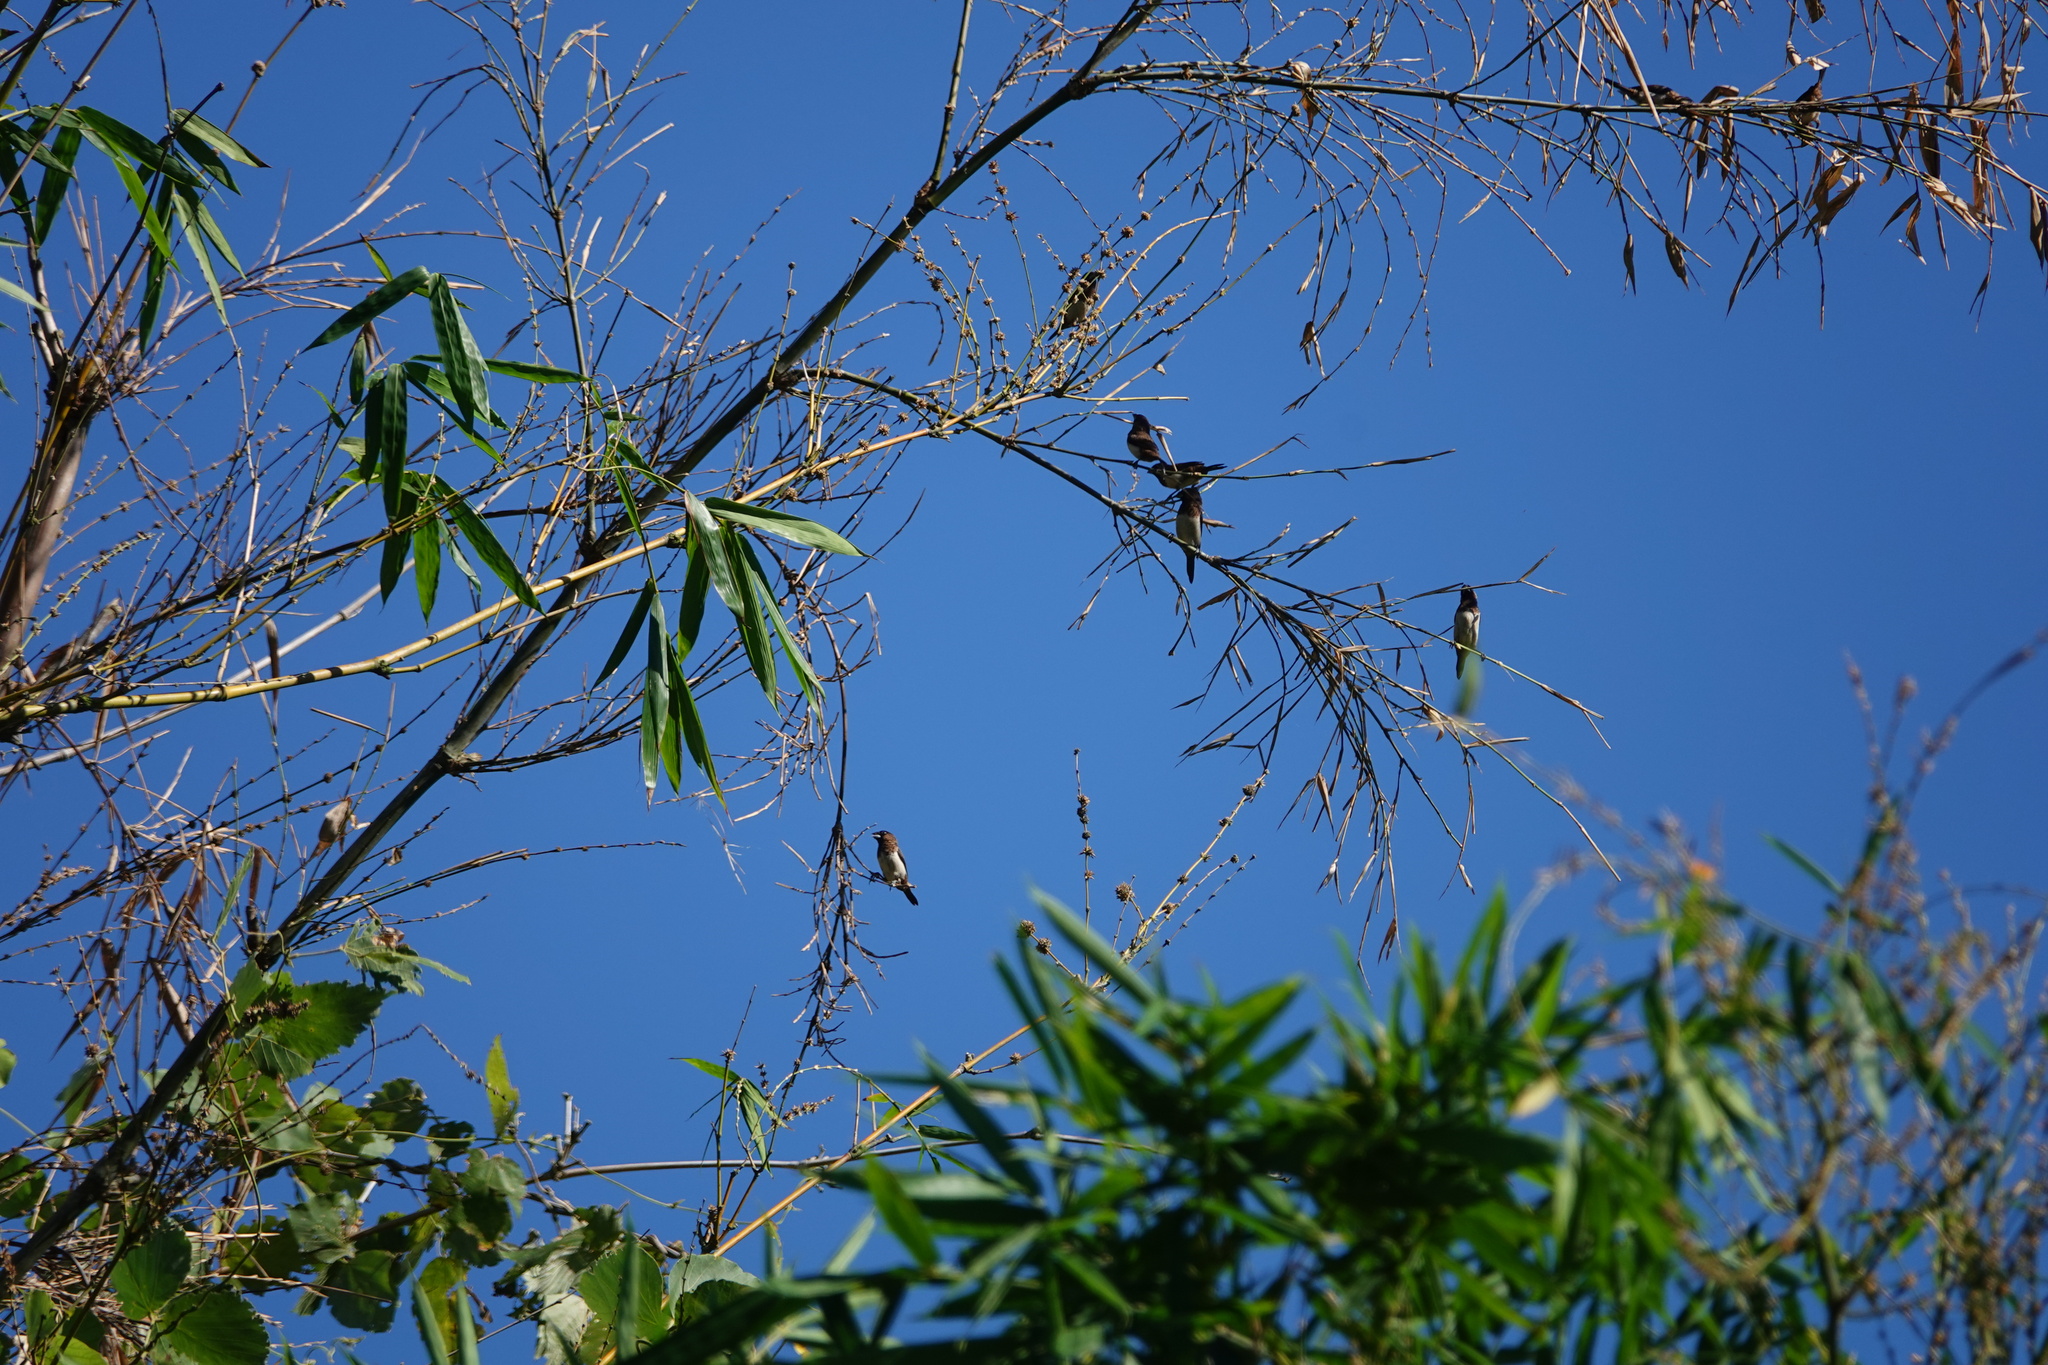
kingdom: Animalia
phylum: Chordata
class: Aves
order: Passeriformes
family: Estrildidae
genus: Lonchura
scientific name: Lonchura striata
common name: White-rumped munia
